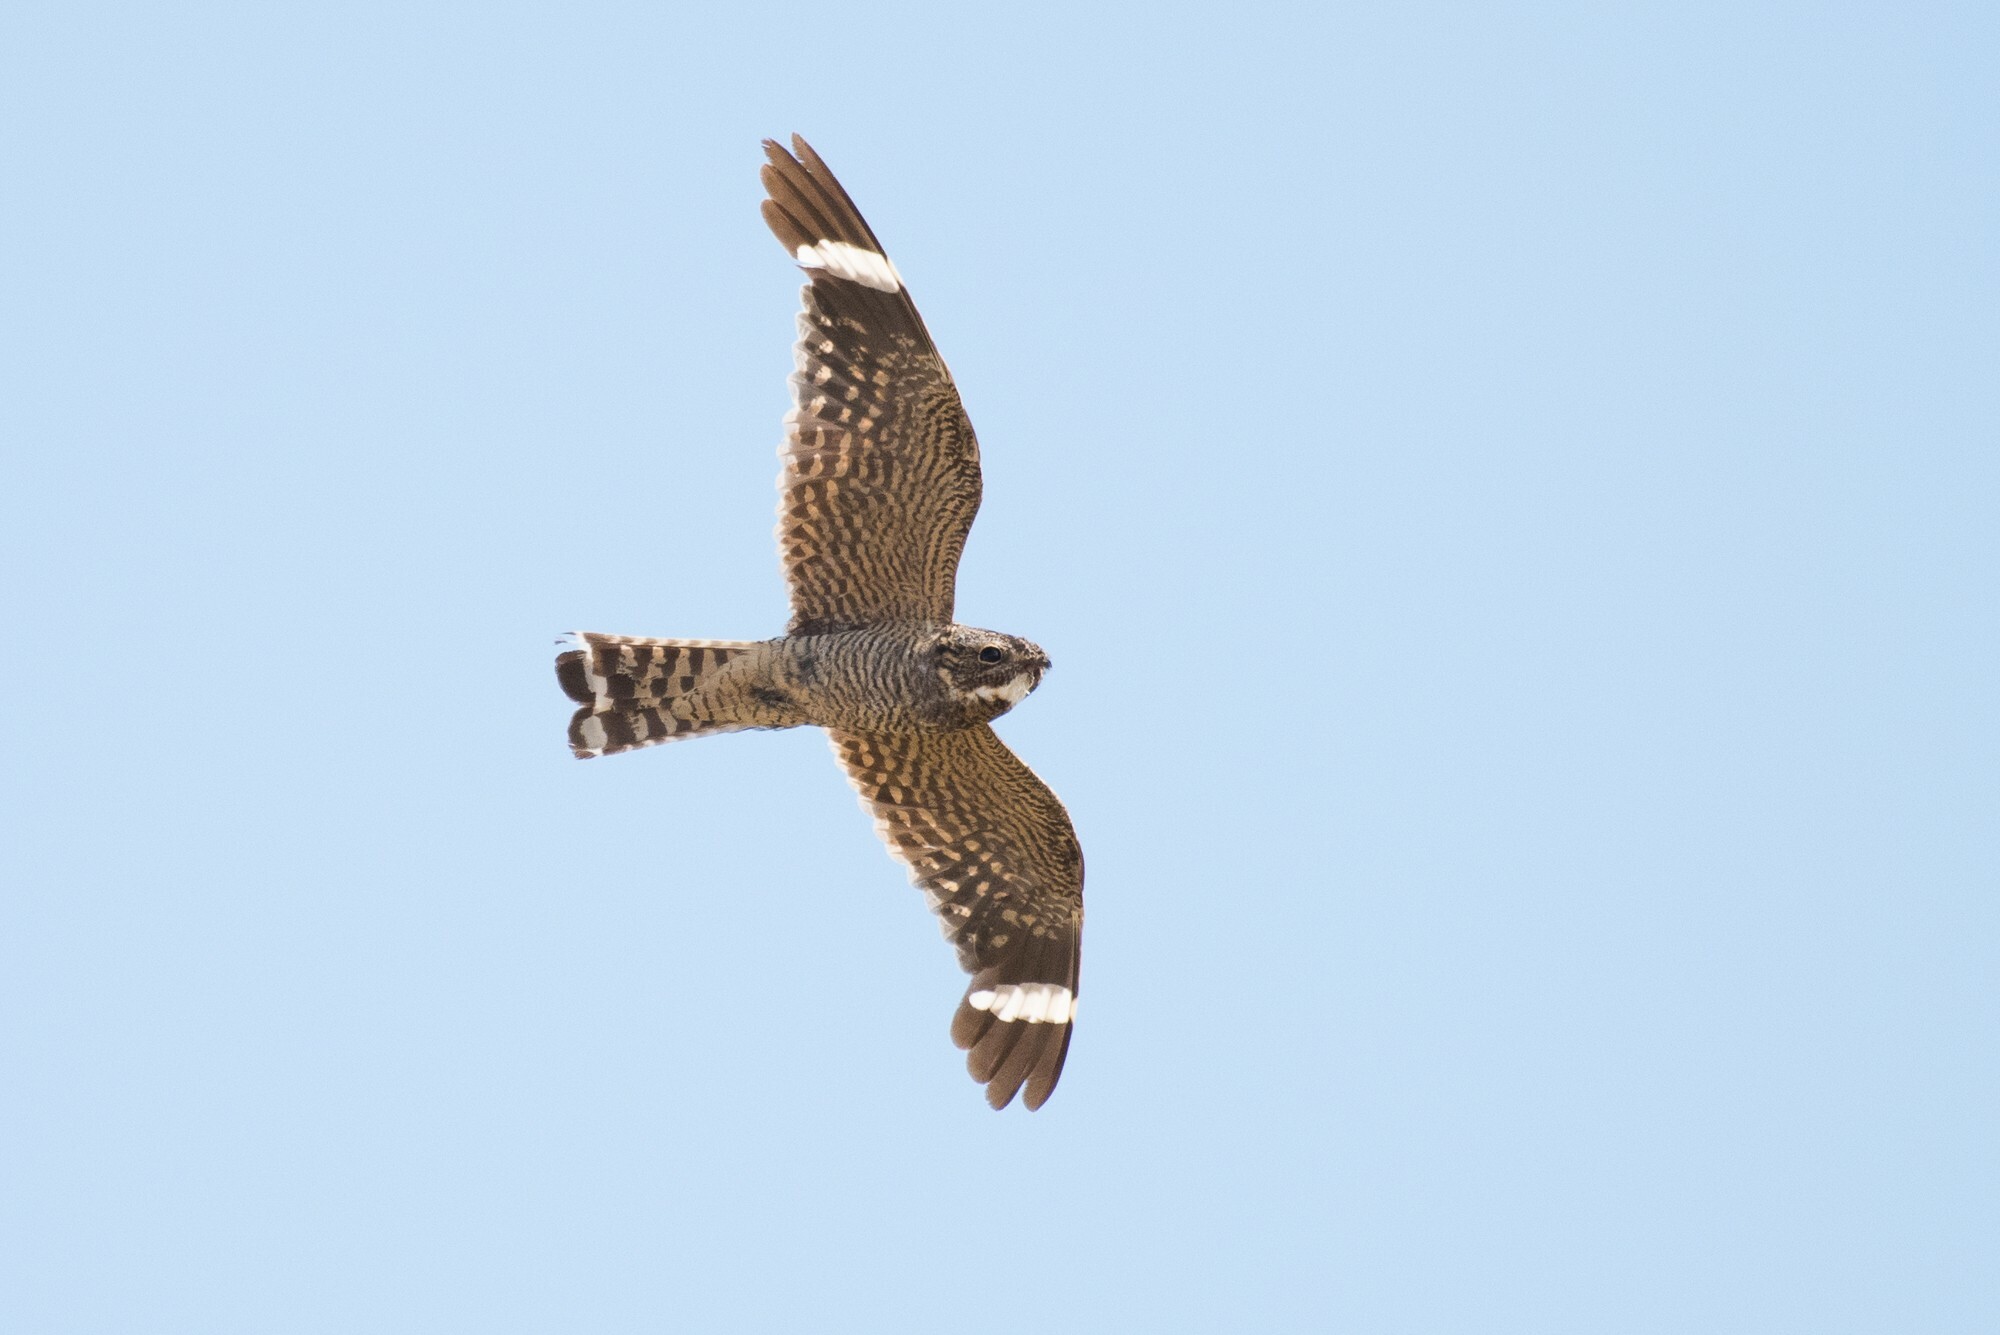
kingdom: Animalia
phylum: Chordata
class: Aves
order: Caprimulgiformes
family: Caprimulgidae
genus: Chordeiles
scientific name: Chordeiles acutipennis
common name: Lesser nighthawk
